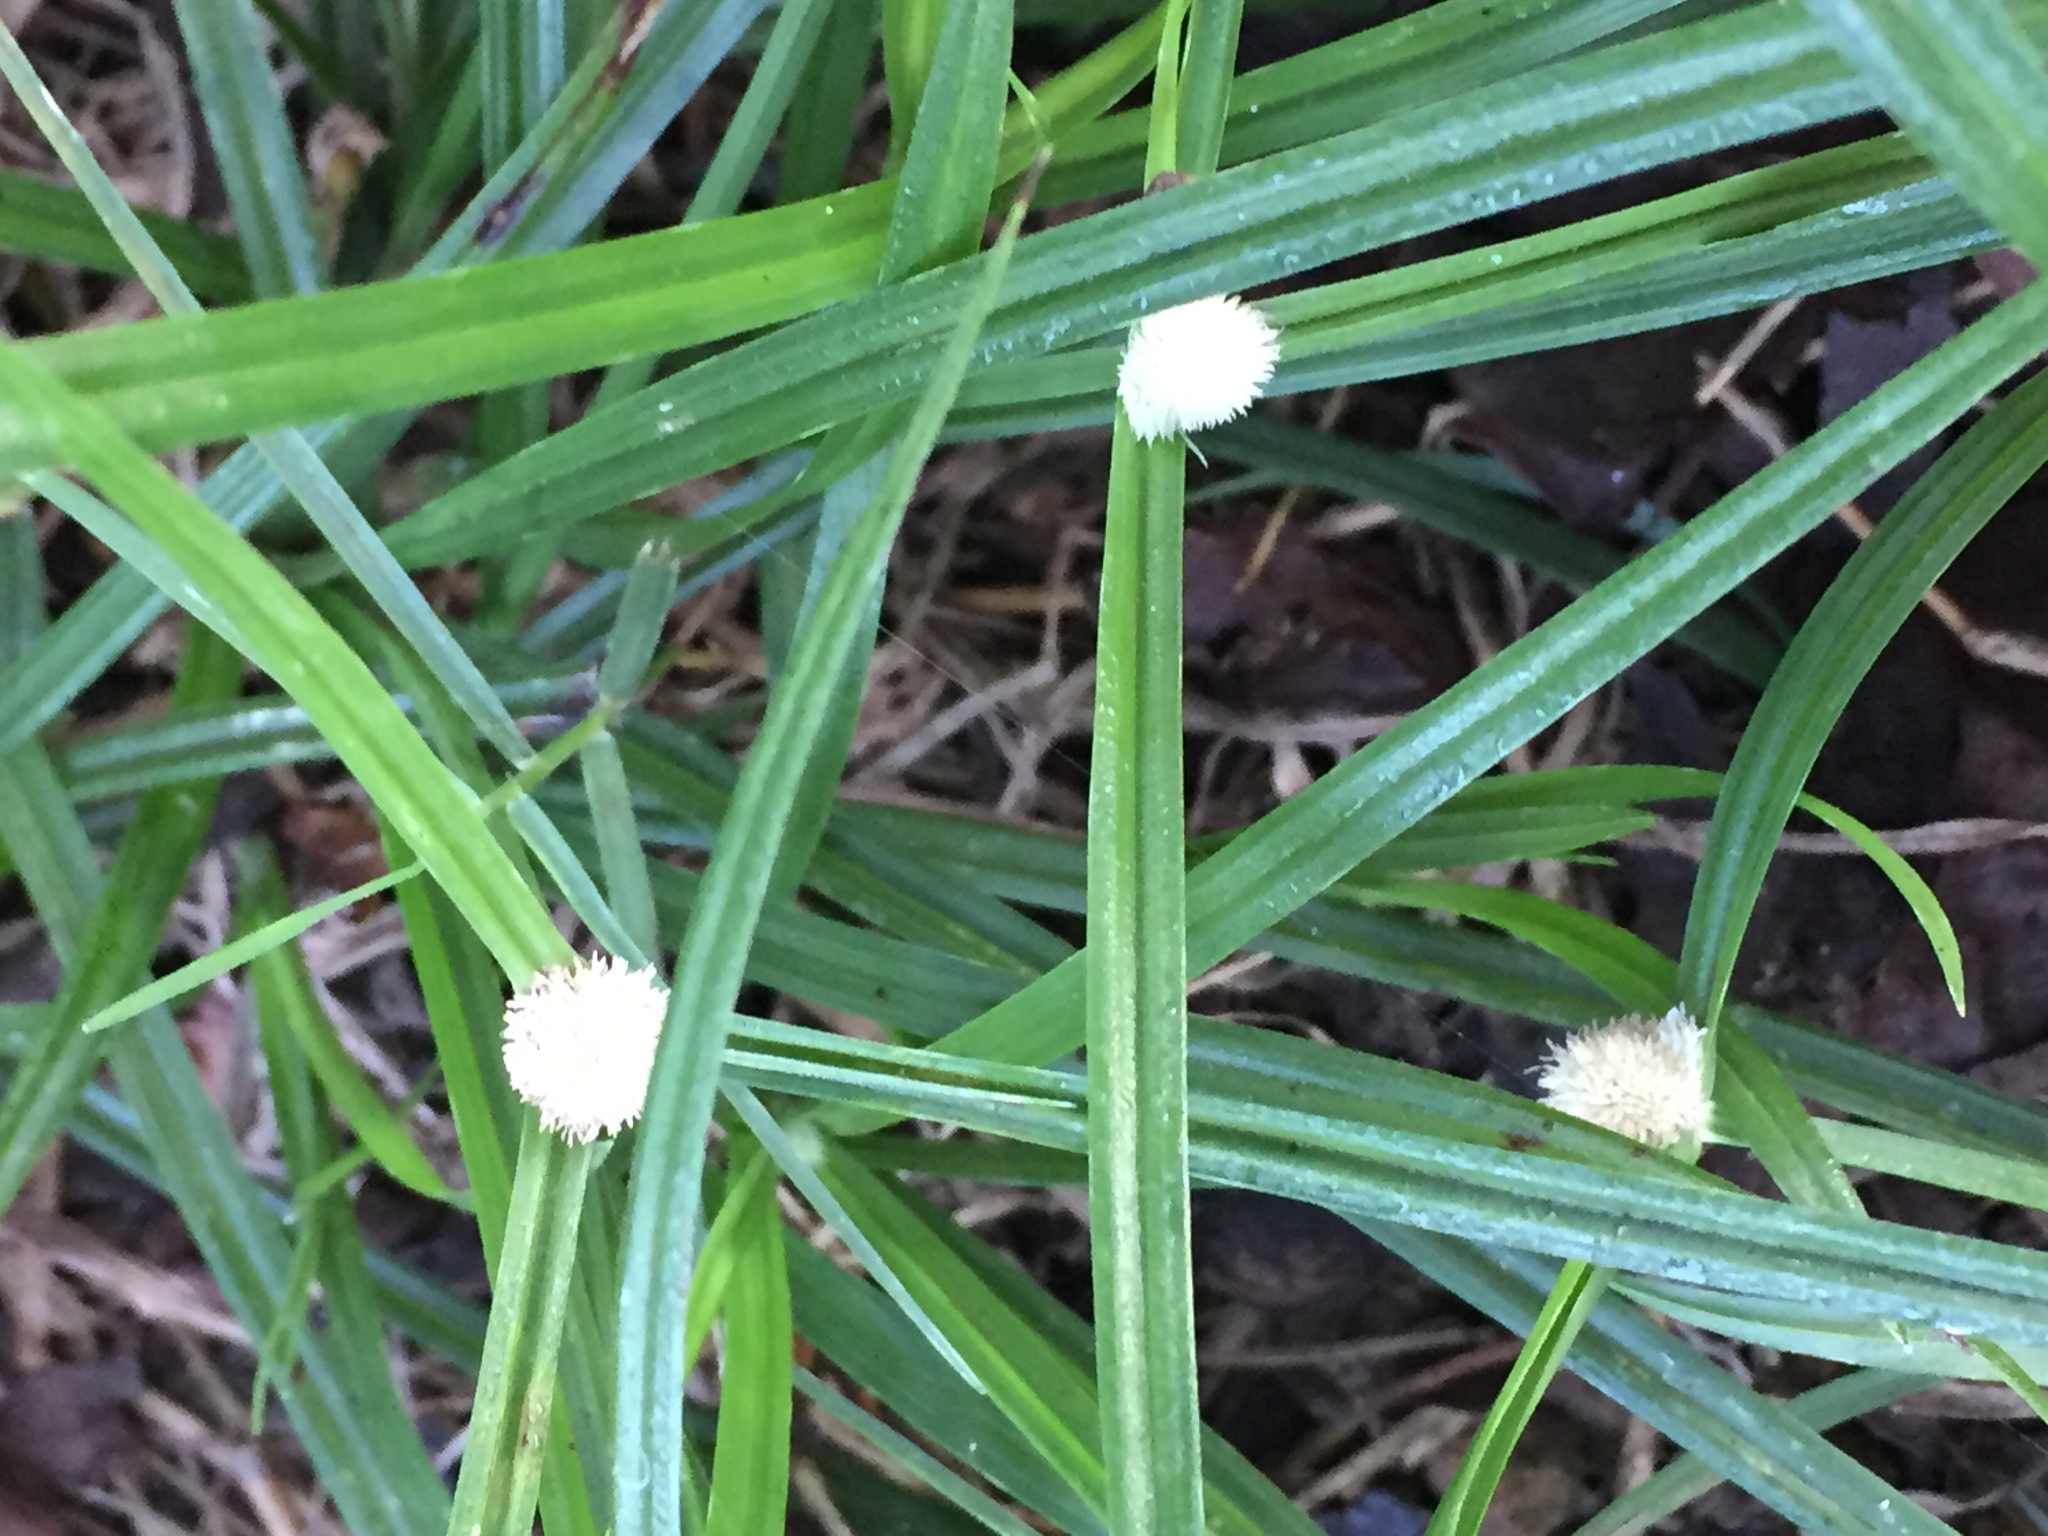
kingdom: Plantae
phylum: Tracheophyta
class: Liliopsida
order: Poales
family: Cyperaceae
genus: Cyperus
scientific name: Cyperus mindorensis
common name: Flatsedge
